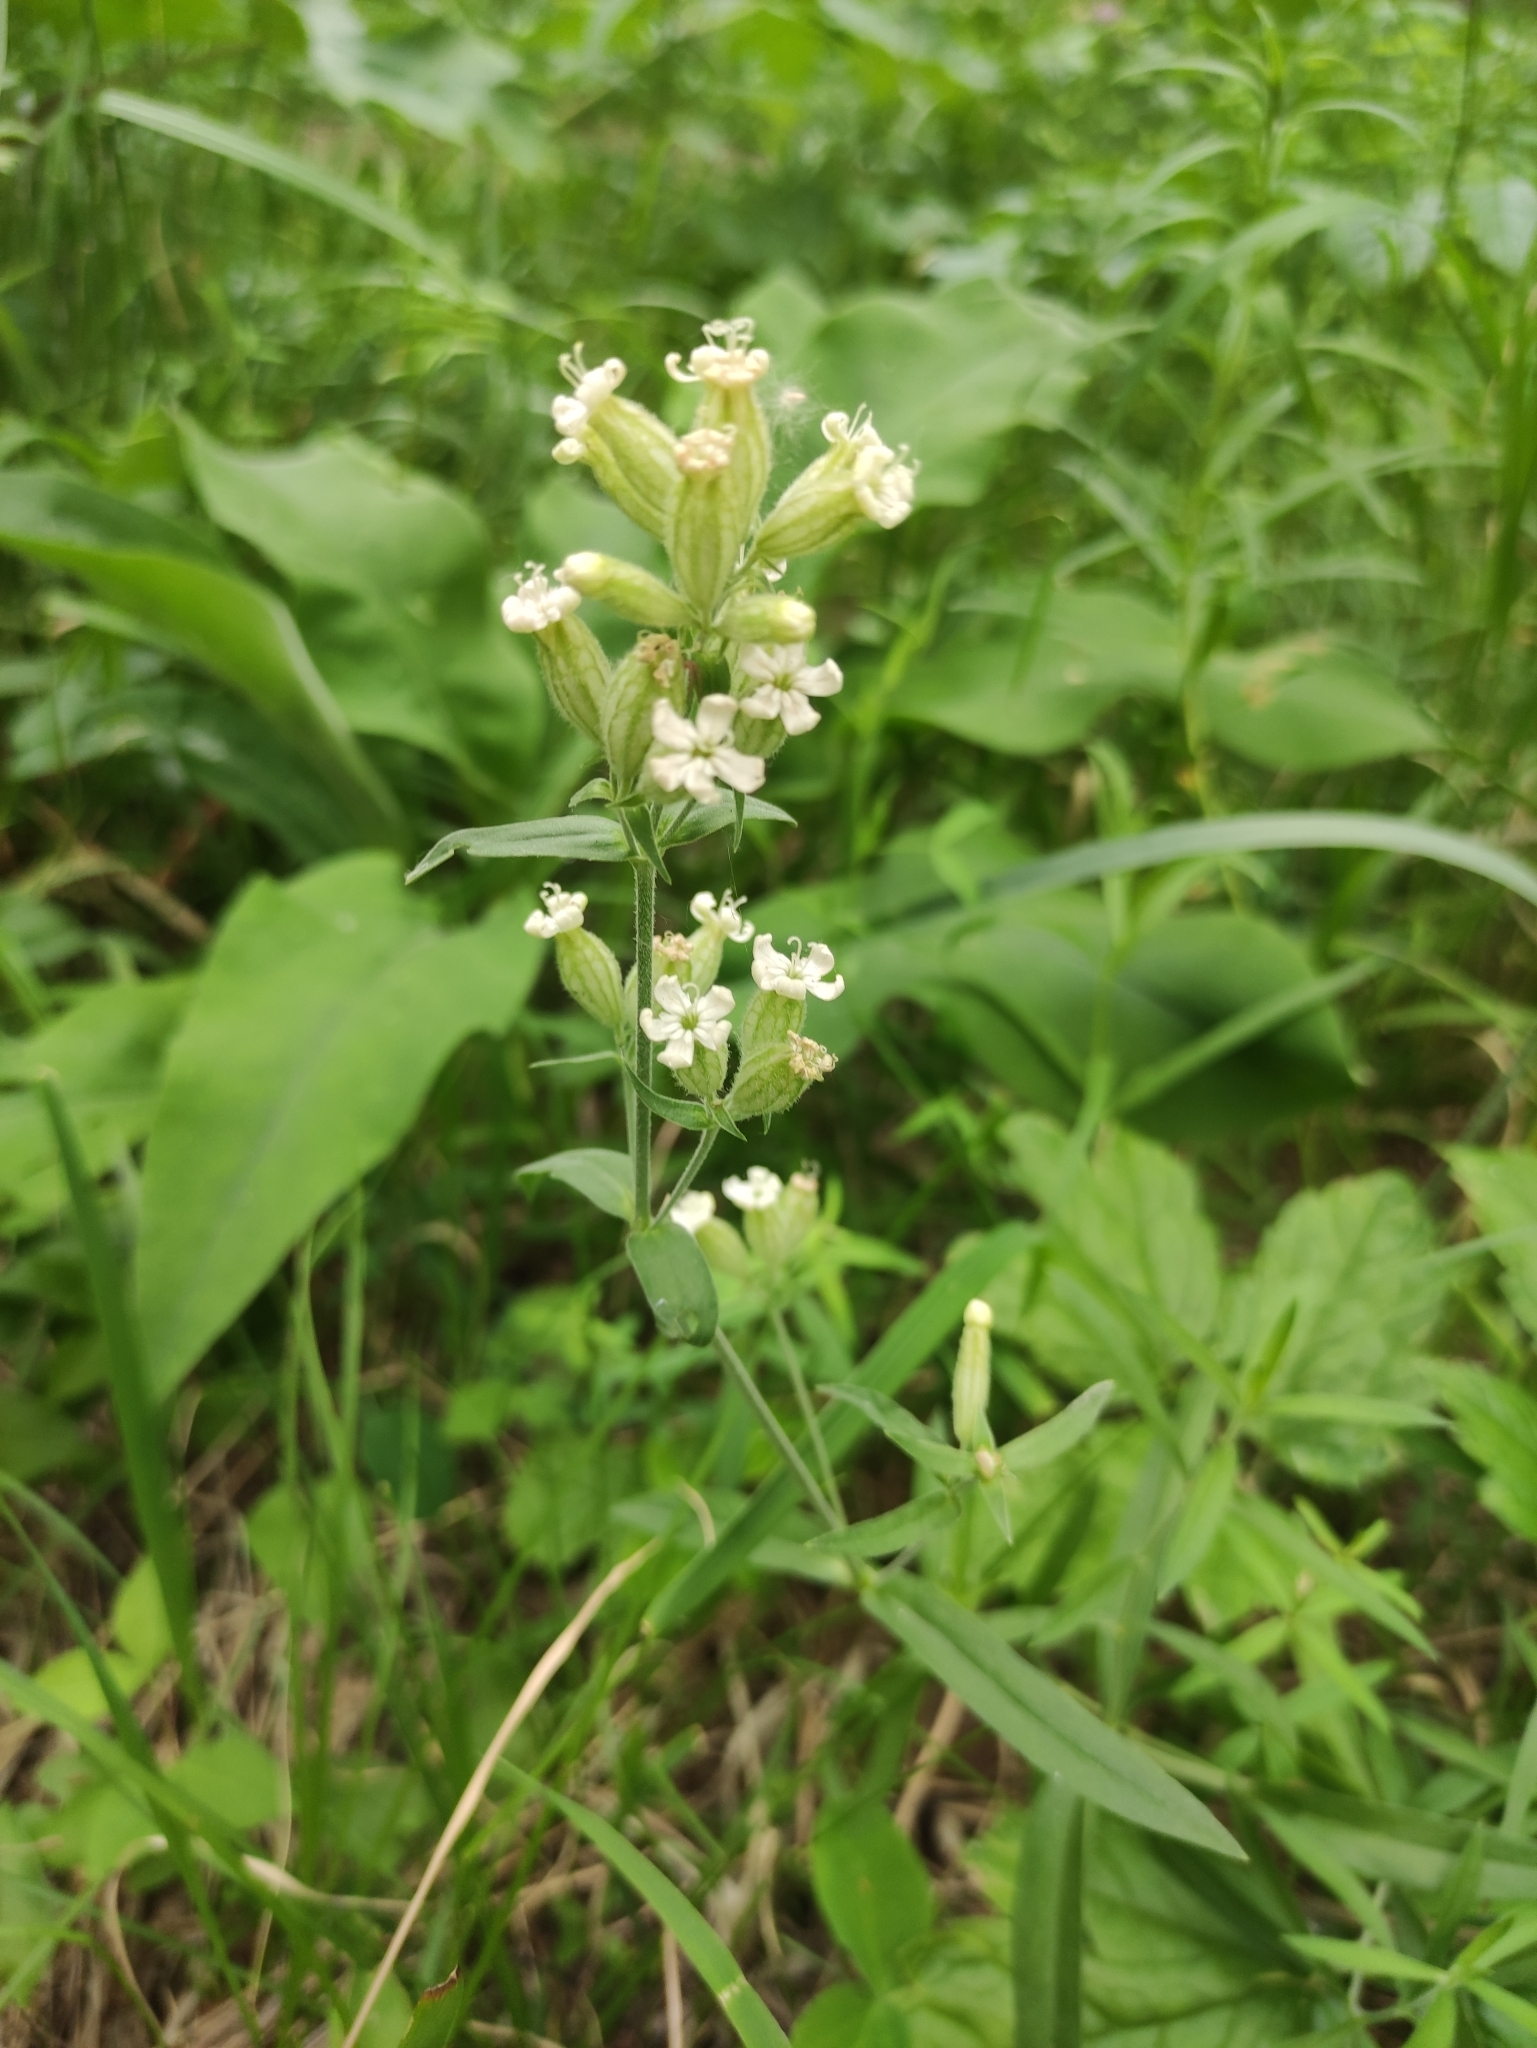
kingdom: Plantae
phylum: Tracheophyta
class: Magnoliopsida
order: Caryophyllales
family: Caryophyllaceae
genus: Silene
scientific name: Silene amoena
